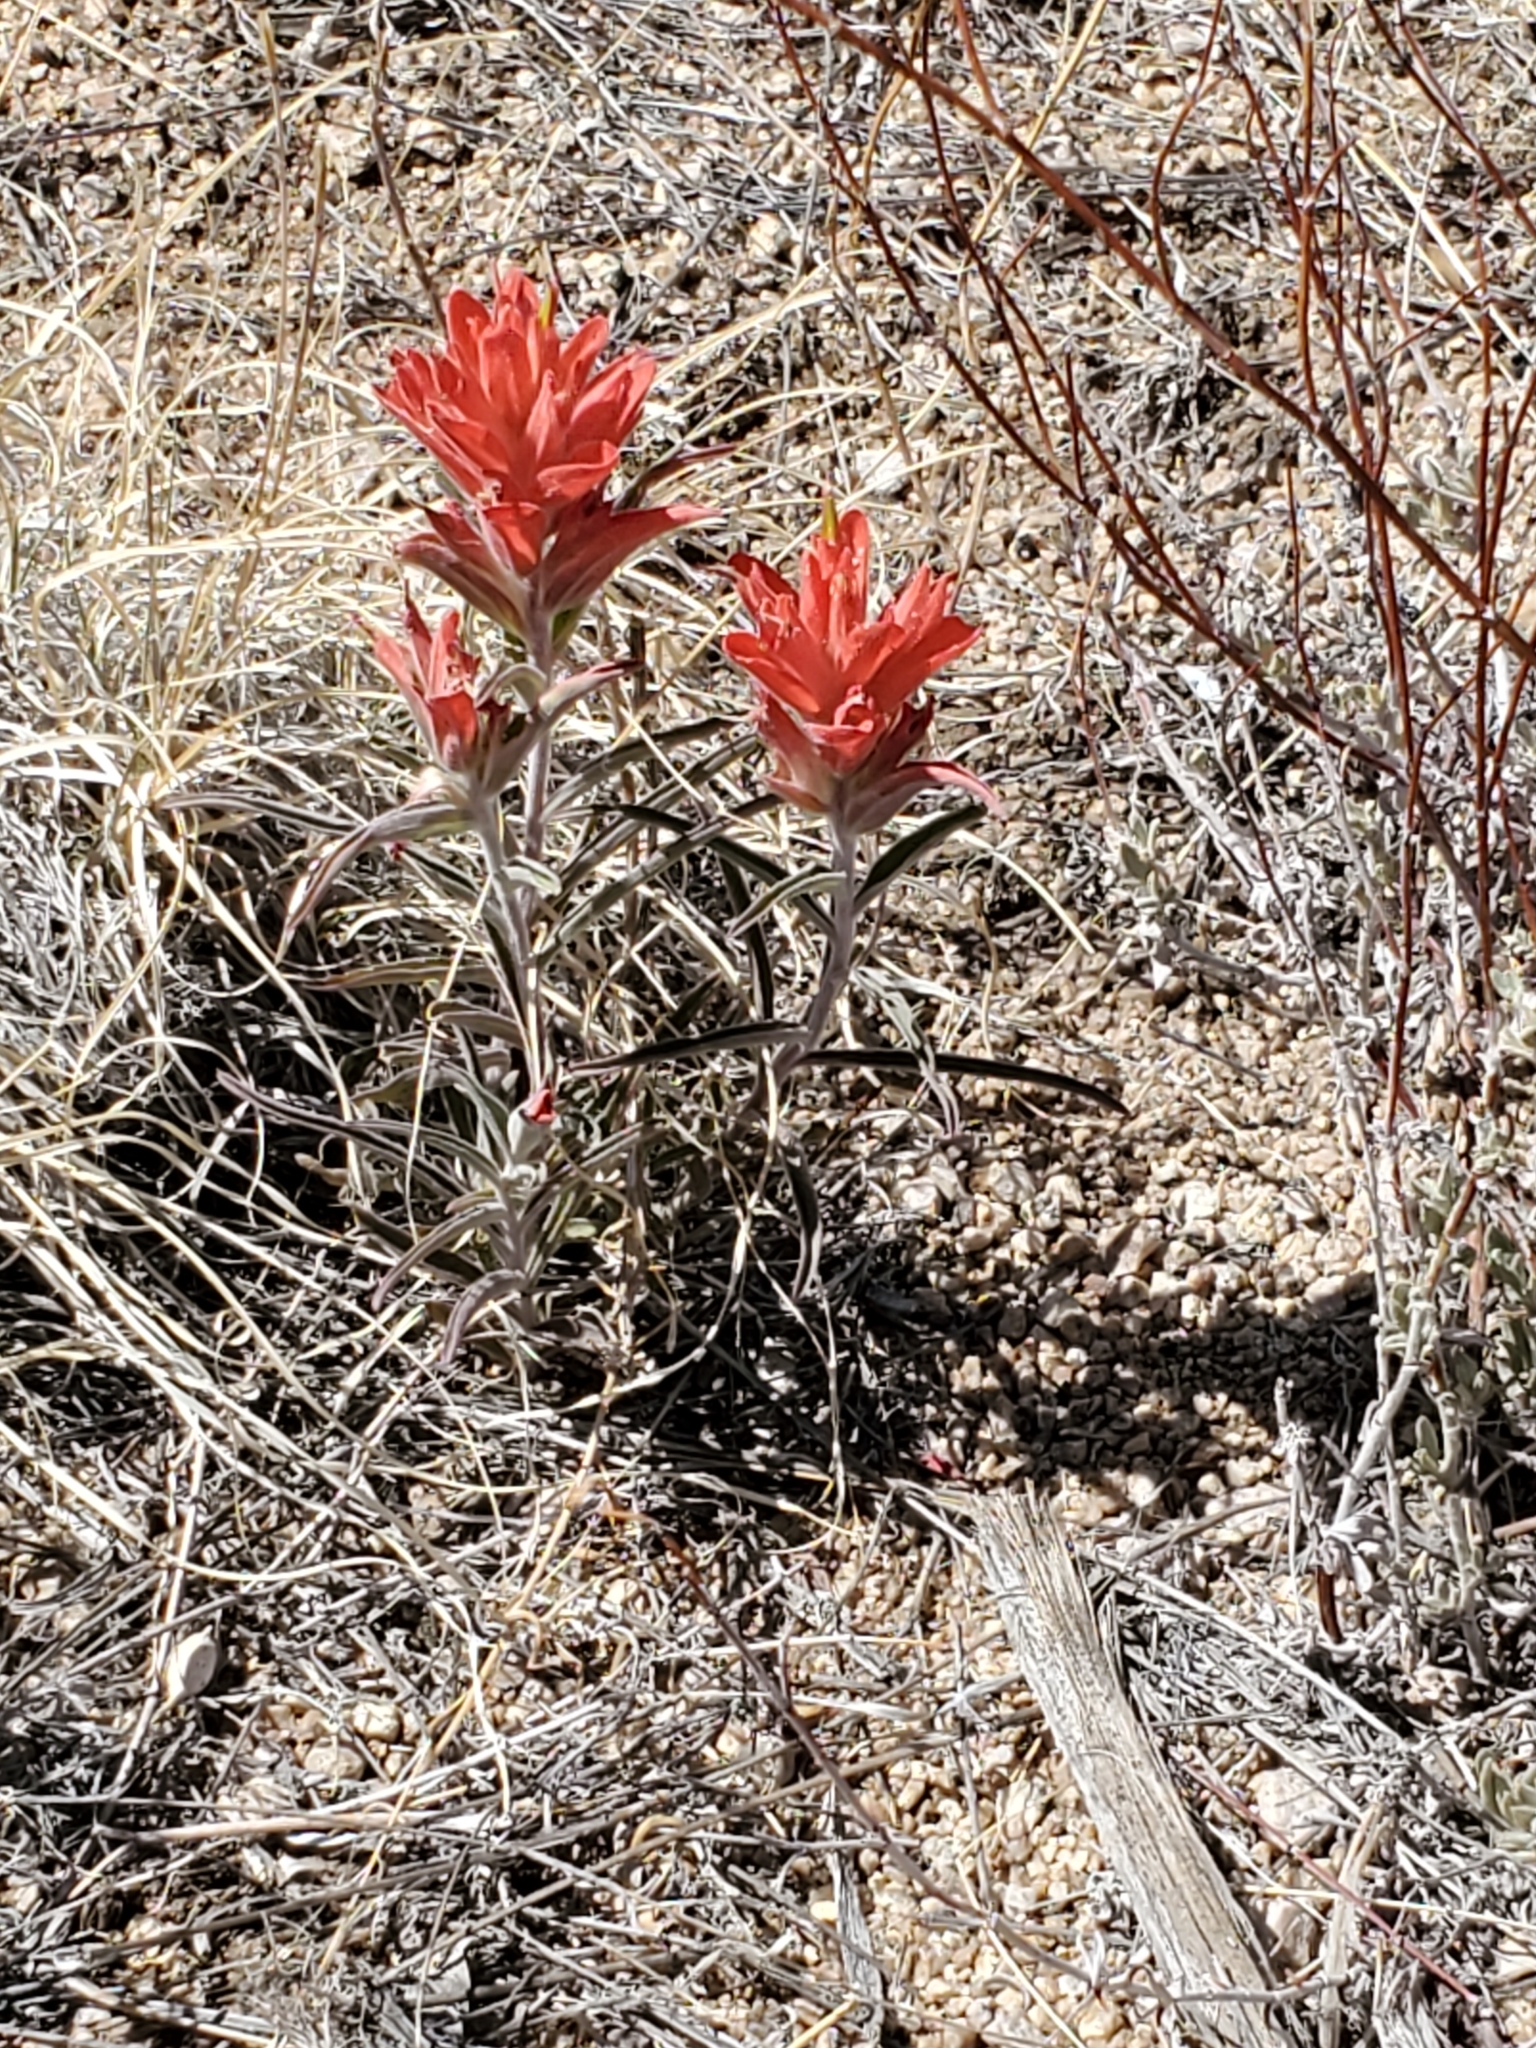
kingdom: Plantae
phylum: Tracheophyta
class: Magnoliopsida
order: Lamiales
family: Orobanchaceae
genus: Castilleja
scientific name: Castilleja integra
